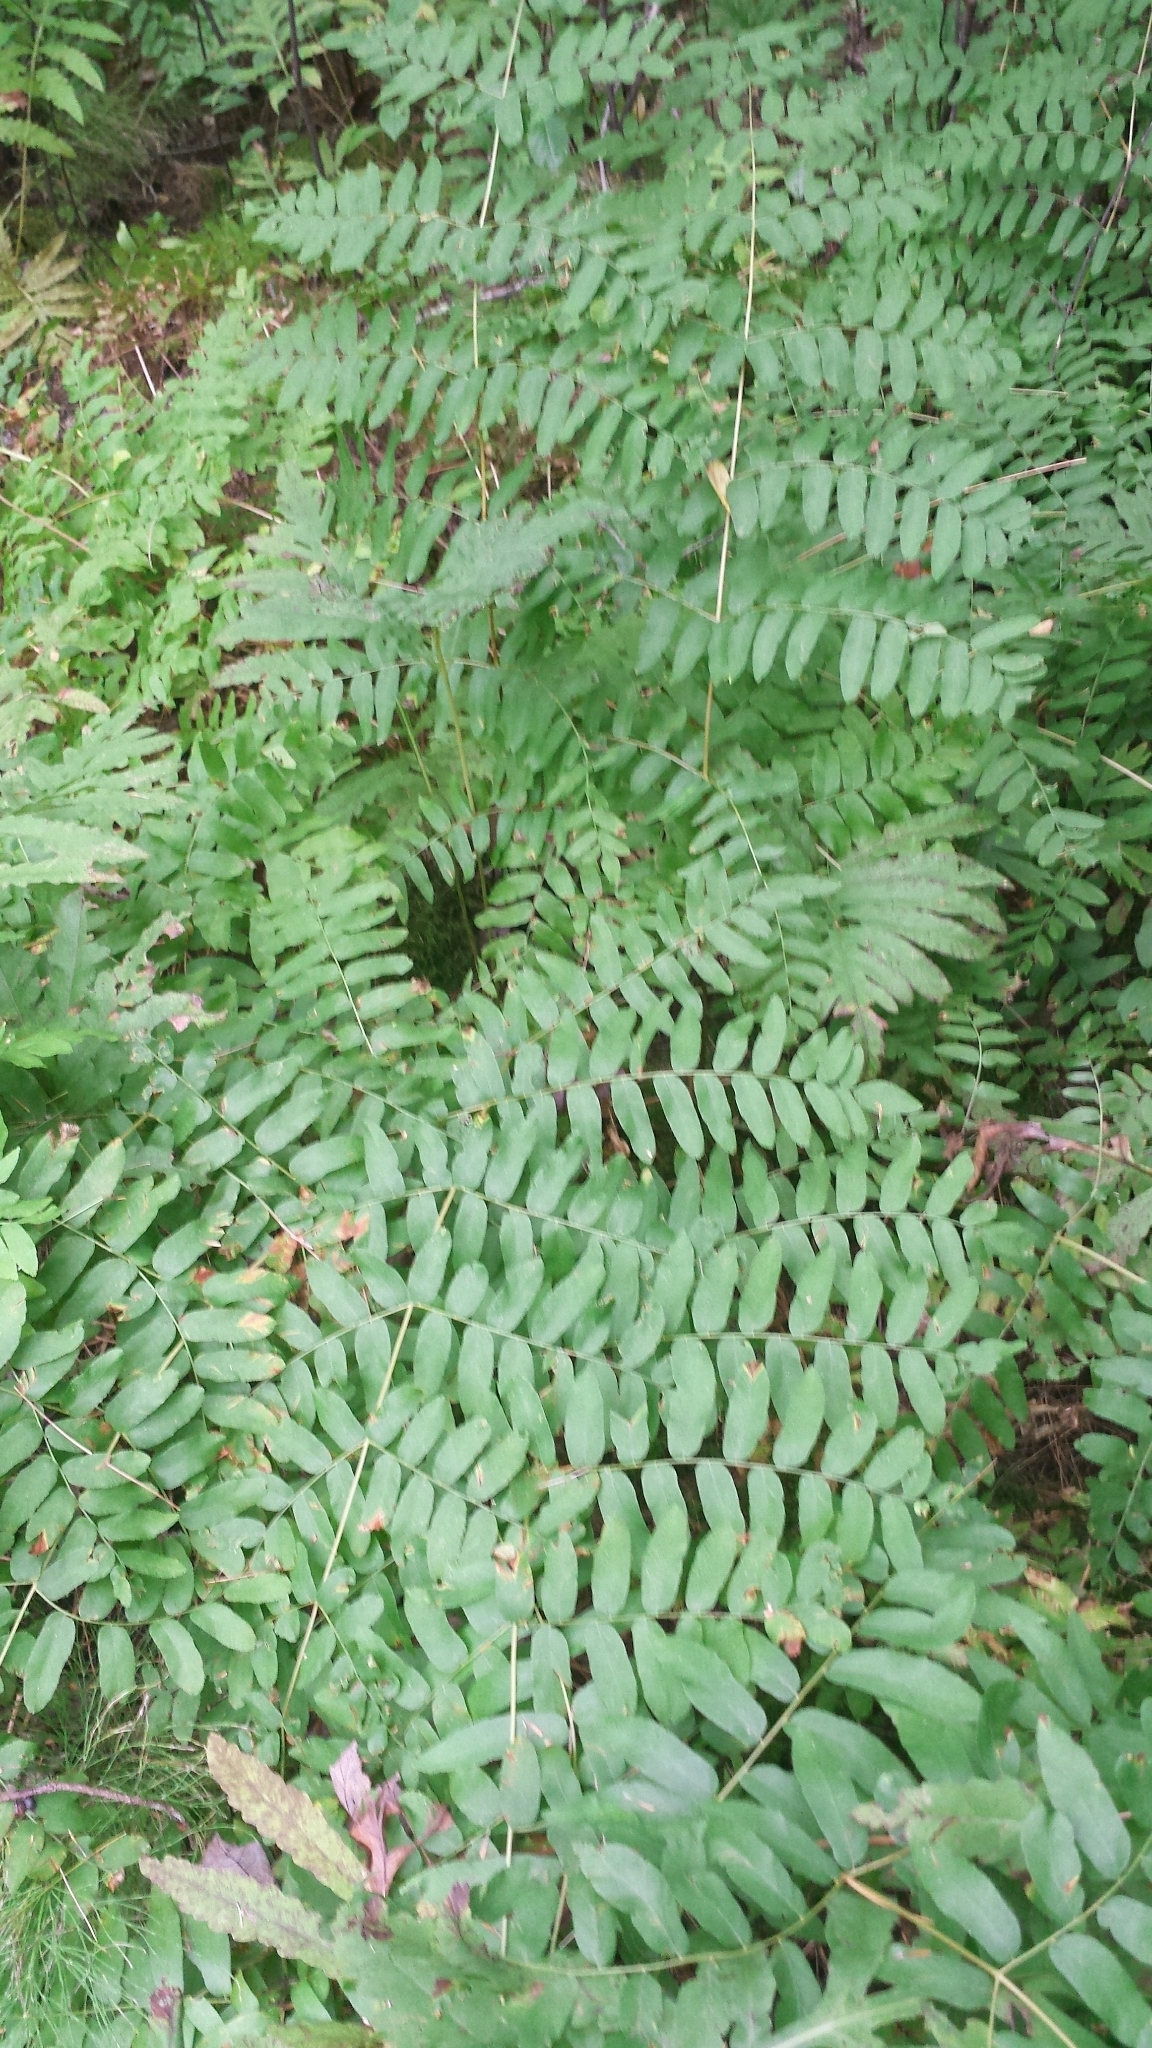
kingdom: Plantae
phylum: Tracheophyta
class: Polypodiopsida
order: Osmundales
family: Osmundaceae
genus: Osmunda
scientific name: Osmunda spectabilis
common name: American royal fern
